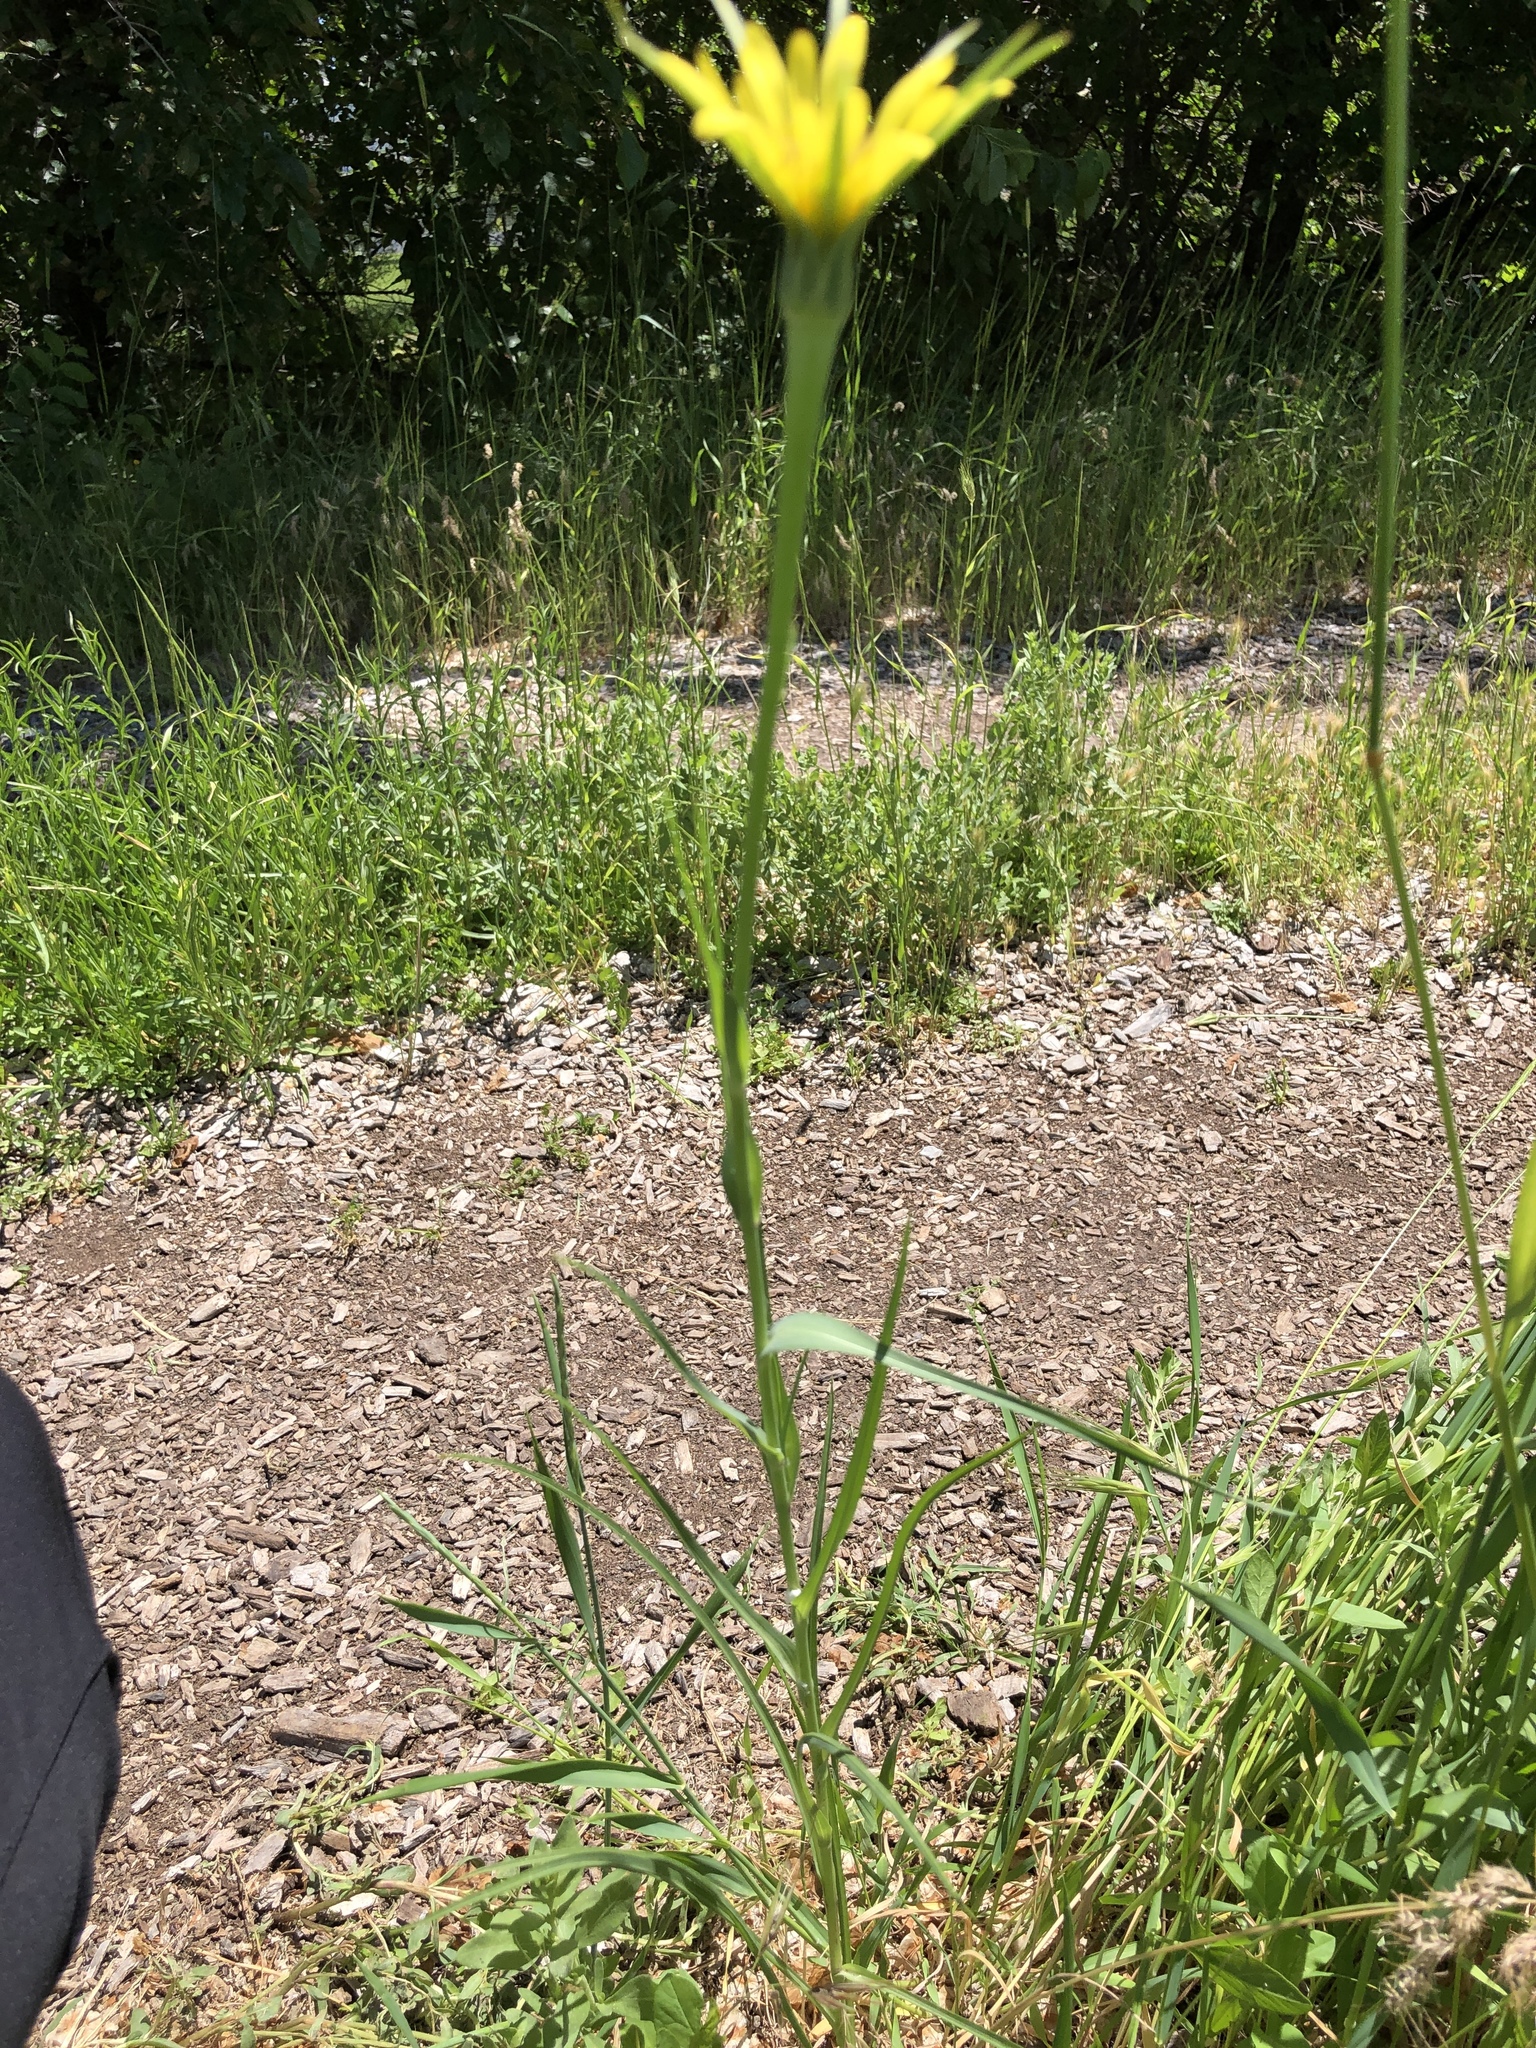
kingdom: Plantae
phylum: Tracheophyta
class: Magnoliopsida
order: Asterales
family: Asteraceae
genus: Tragopogon
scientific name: Tragopogon dubius
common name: Yellow salsify
